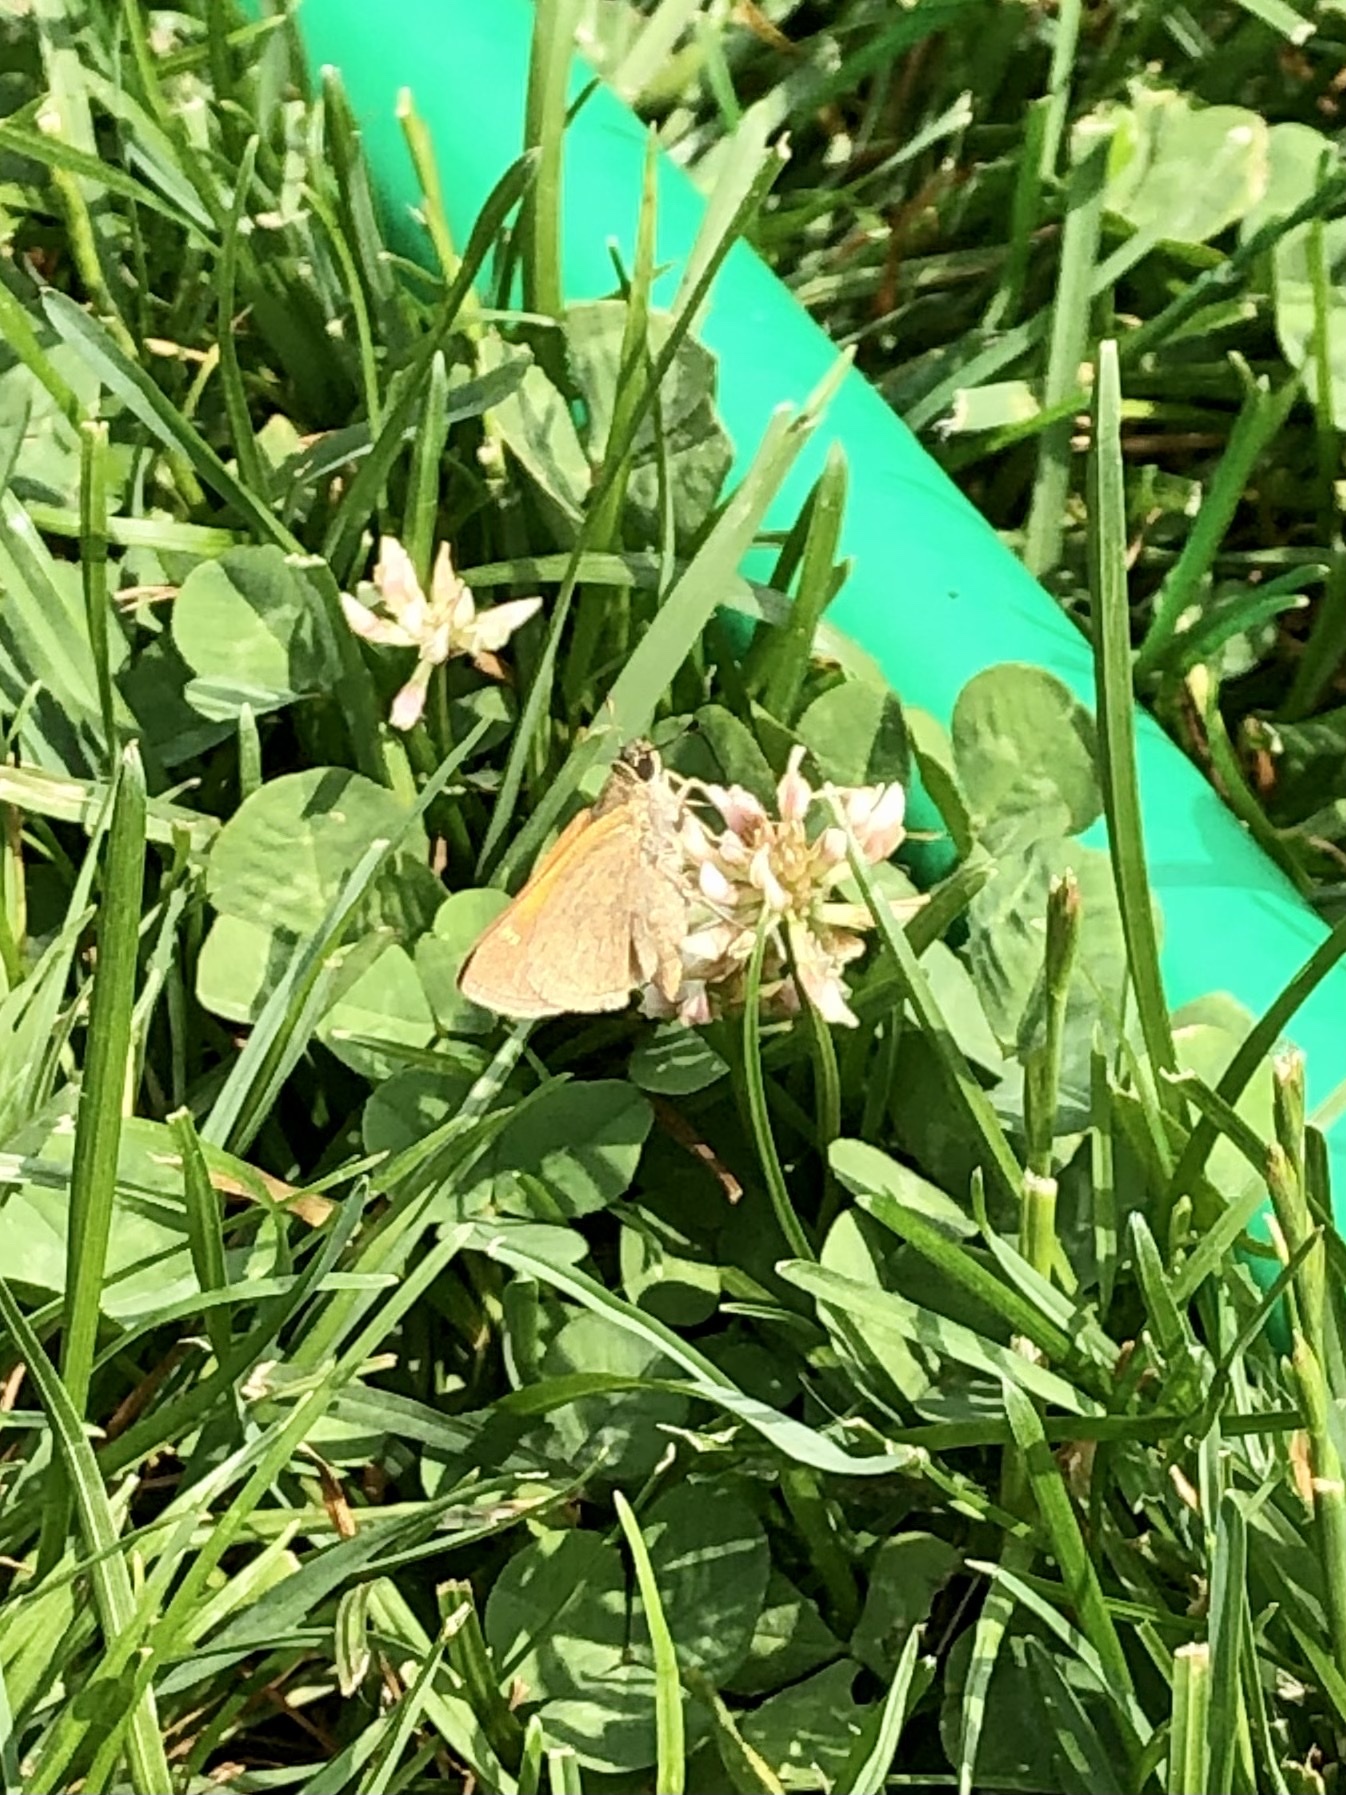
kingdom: Animalia
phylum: Arthropoda
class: Insecta
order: Lepidoptera
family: Hesperiidae
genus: Polites
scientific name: Polites themistocles
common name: Tawny-edged skipper
